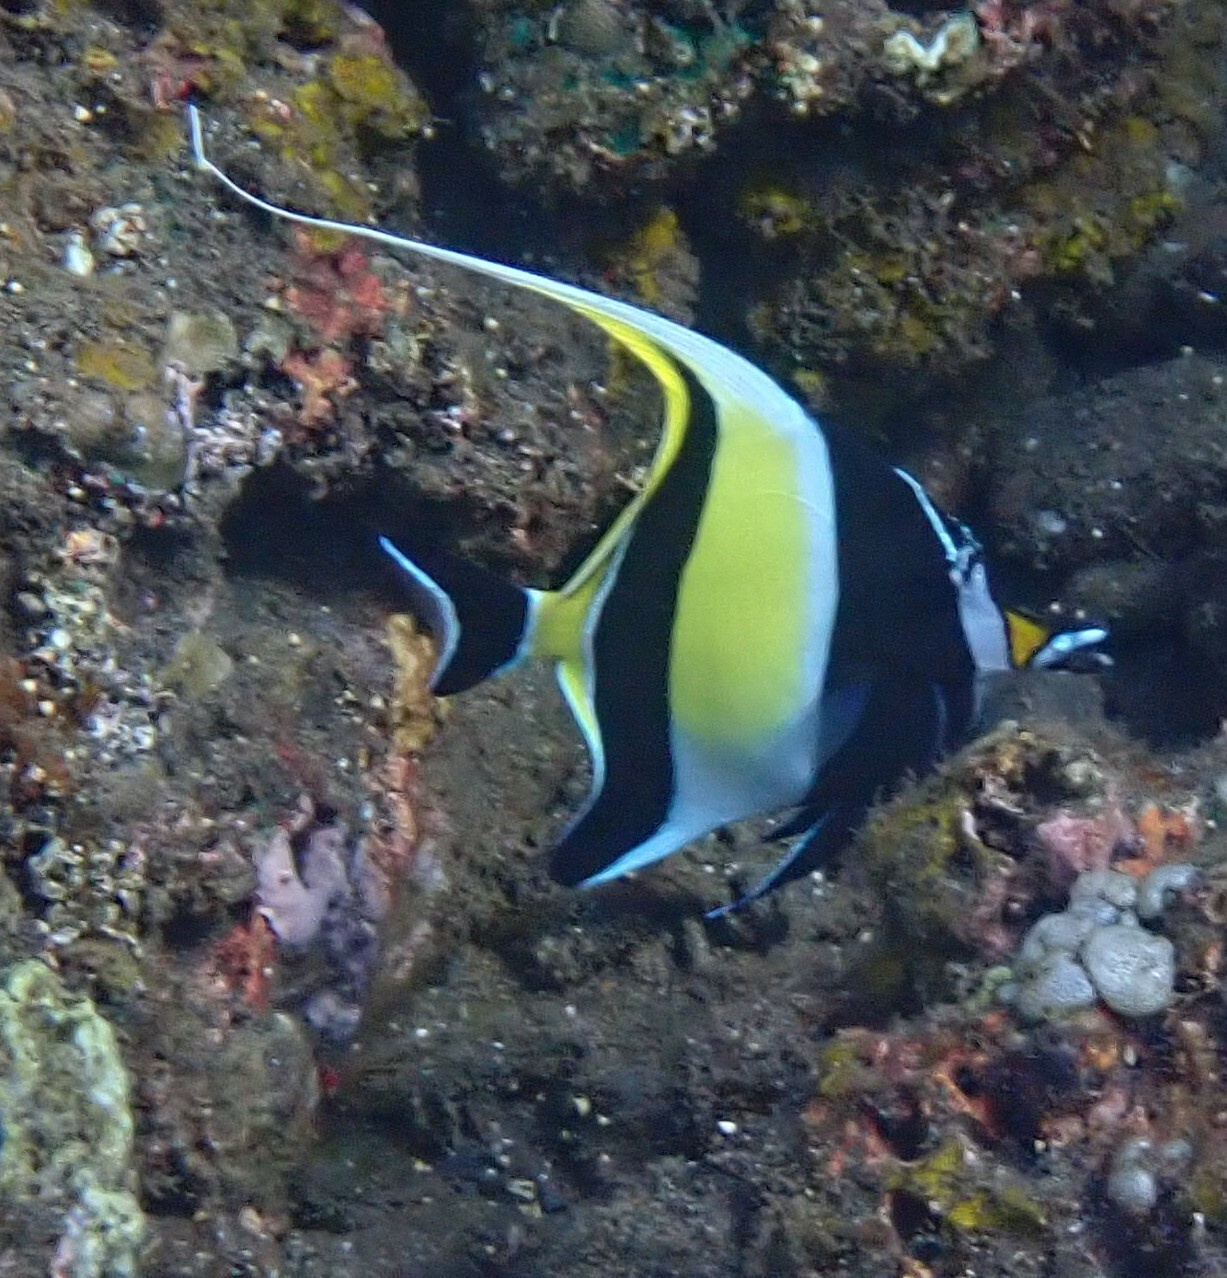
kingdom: Animalia
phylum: Chordata
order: Perciformes
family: Zanclidae
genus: Zanclus
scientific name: Zanclus cornutus
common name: Moorish idol
